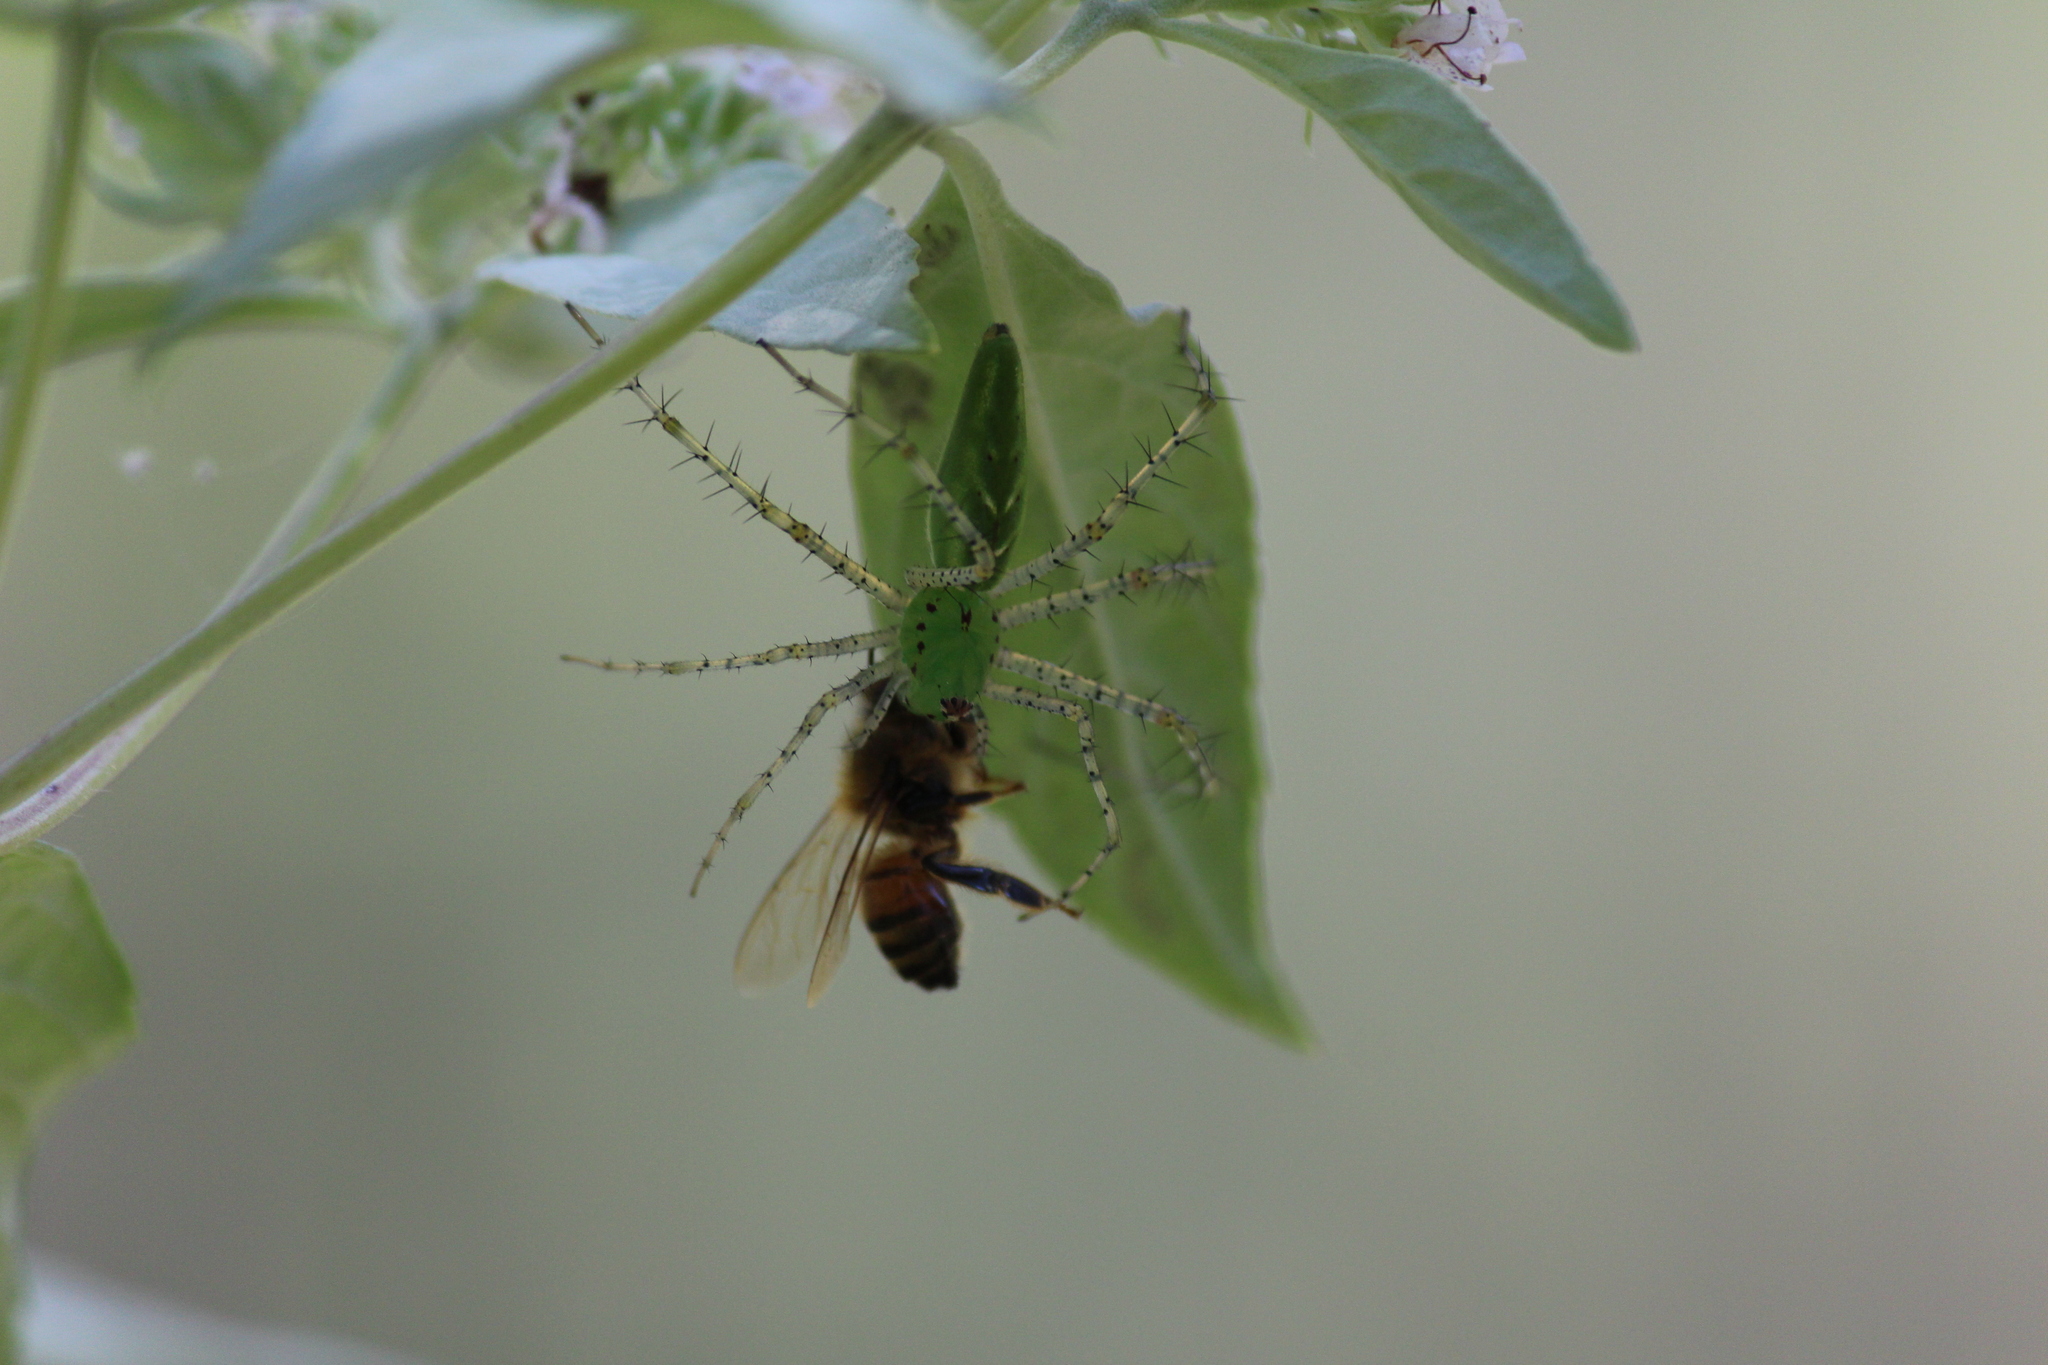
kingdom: Animalia
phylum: Arthropoda
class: Arachnida
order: Araneae
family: Oxyopidae
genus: Peucetia
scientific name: Peucetia viridans
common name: Lynx spiders
